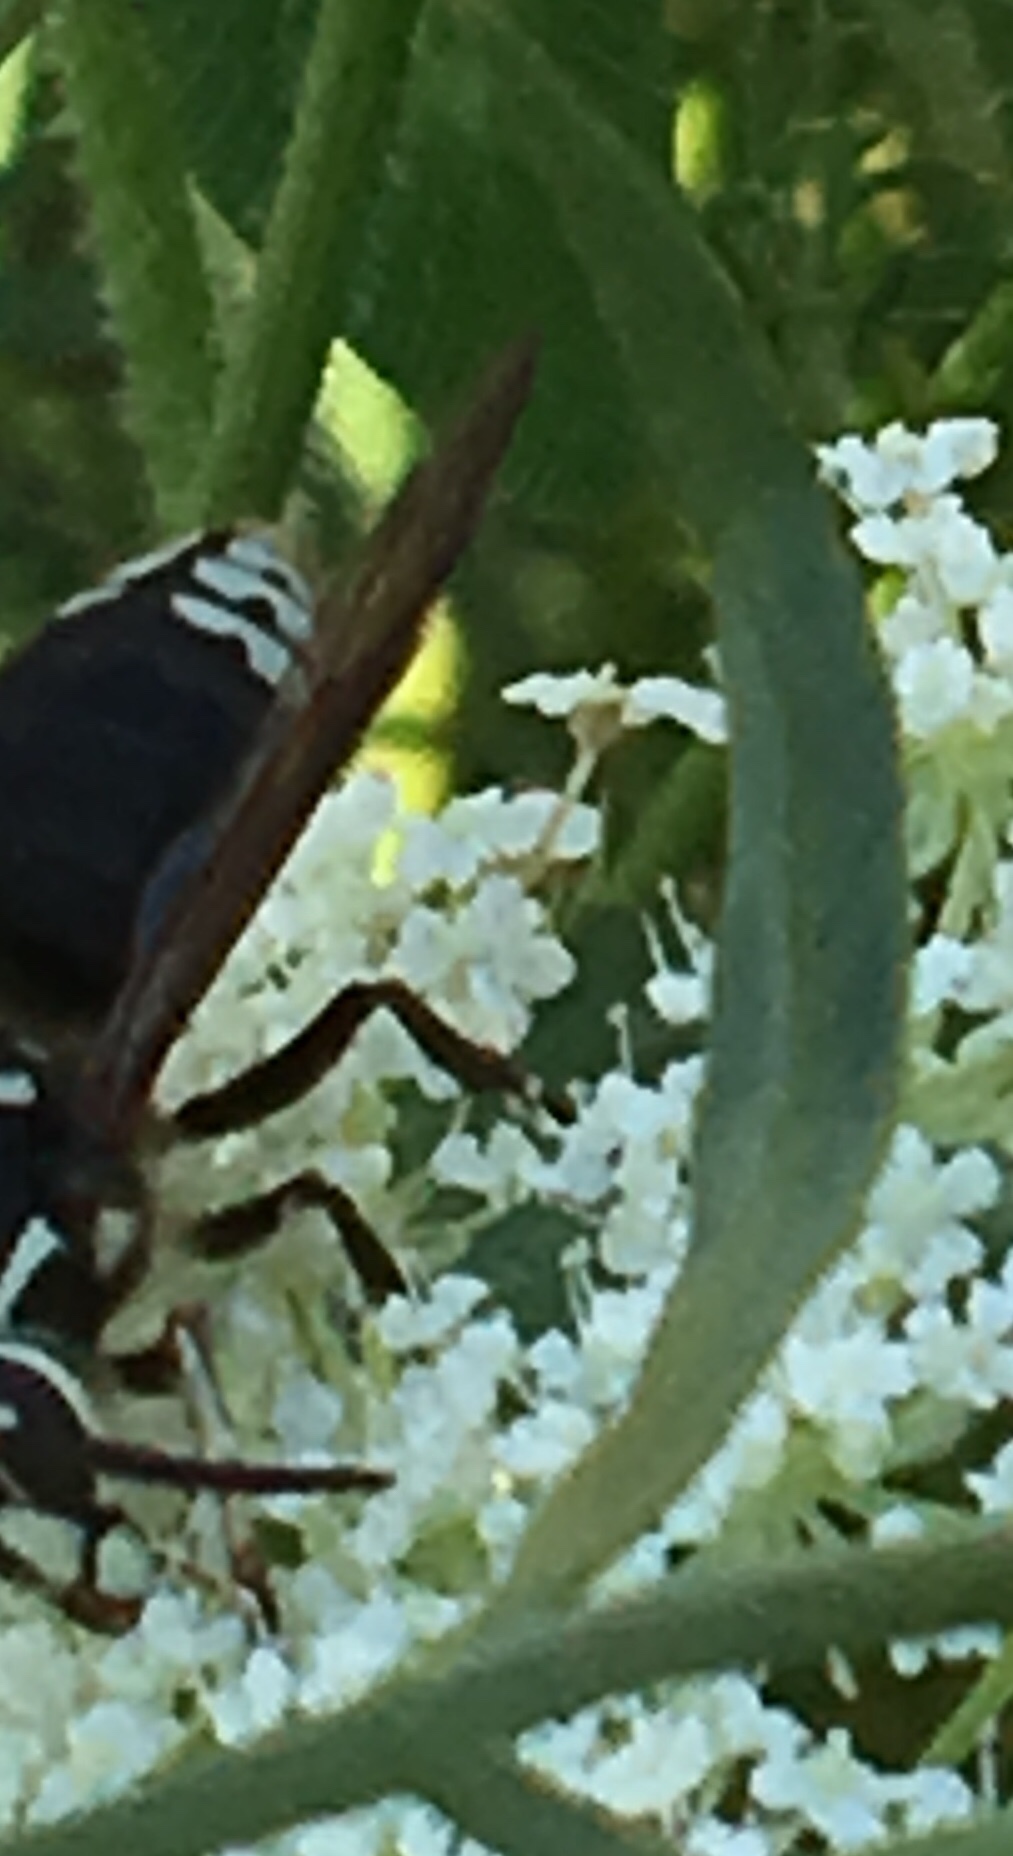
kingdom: Animalia
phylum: Arthropoda
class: Insecta
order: Hymenoptera
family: Vespidae
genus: Dolichovespula
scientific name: Dolichovespula maculata
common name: Bald-faced hornet
